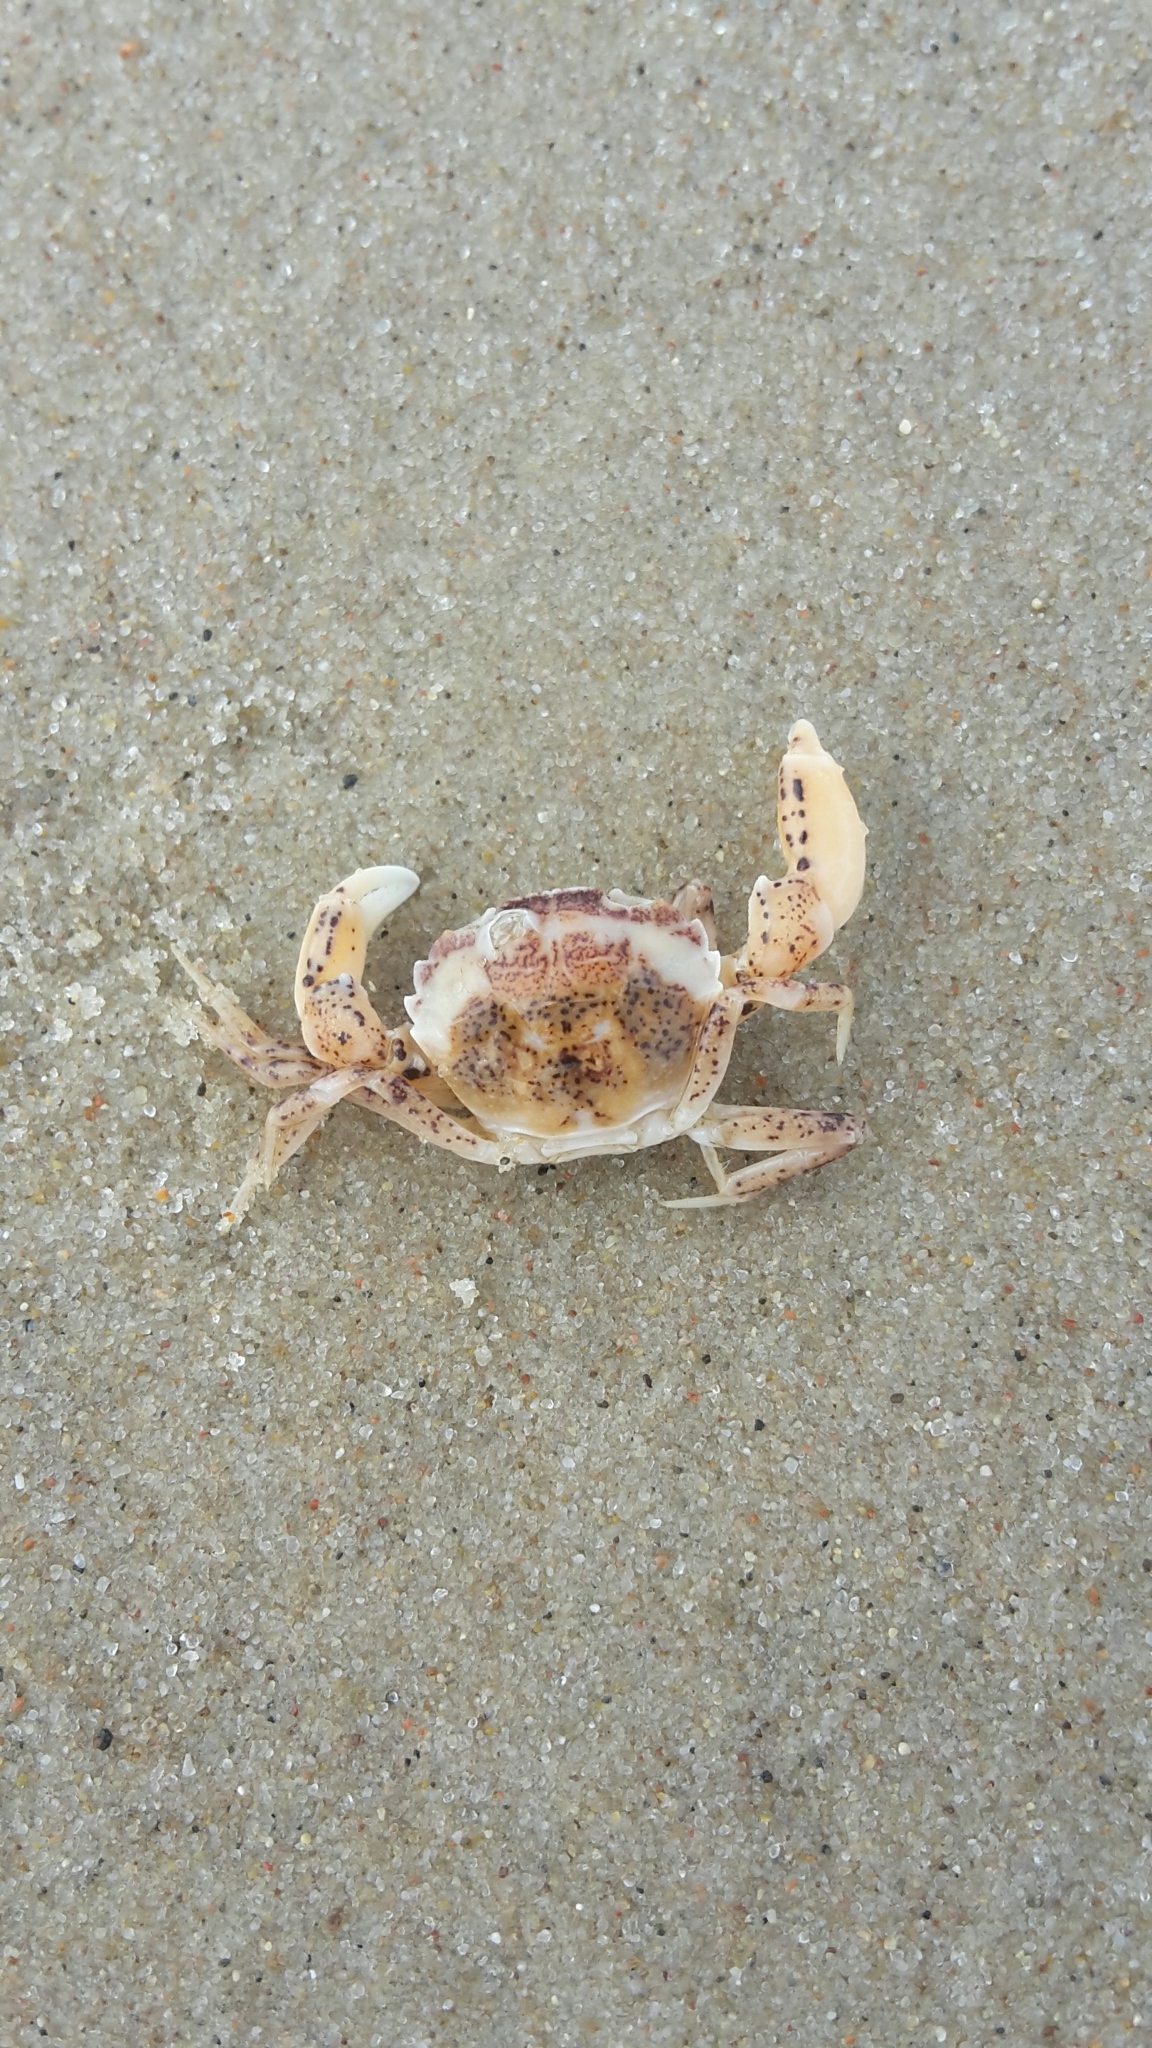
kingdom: Animalia
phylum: Arthropoda
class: Malacostraca
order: Decapoda
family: Panopeidae
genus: Rhithropanopeus
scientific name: Rhithropanopeus harrisii
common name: Dwarf crab
